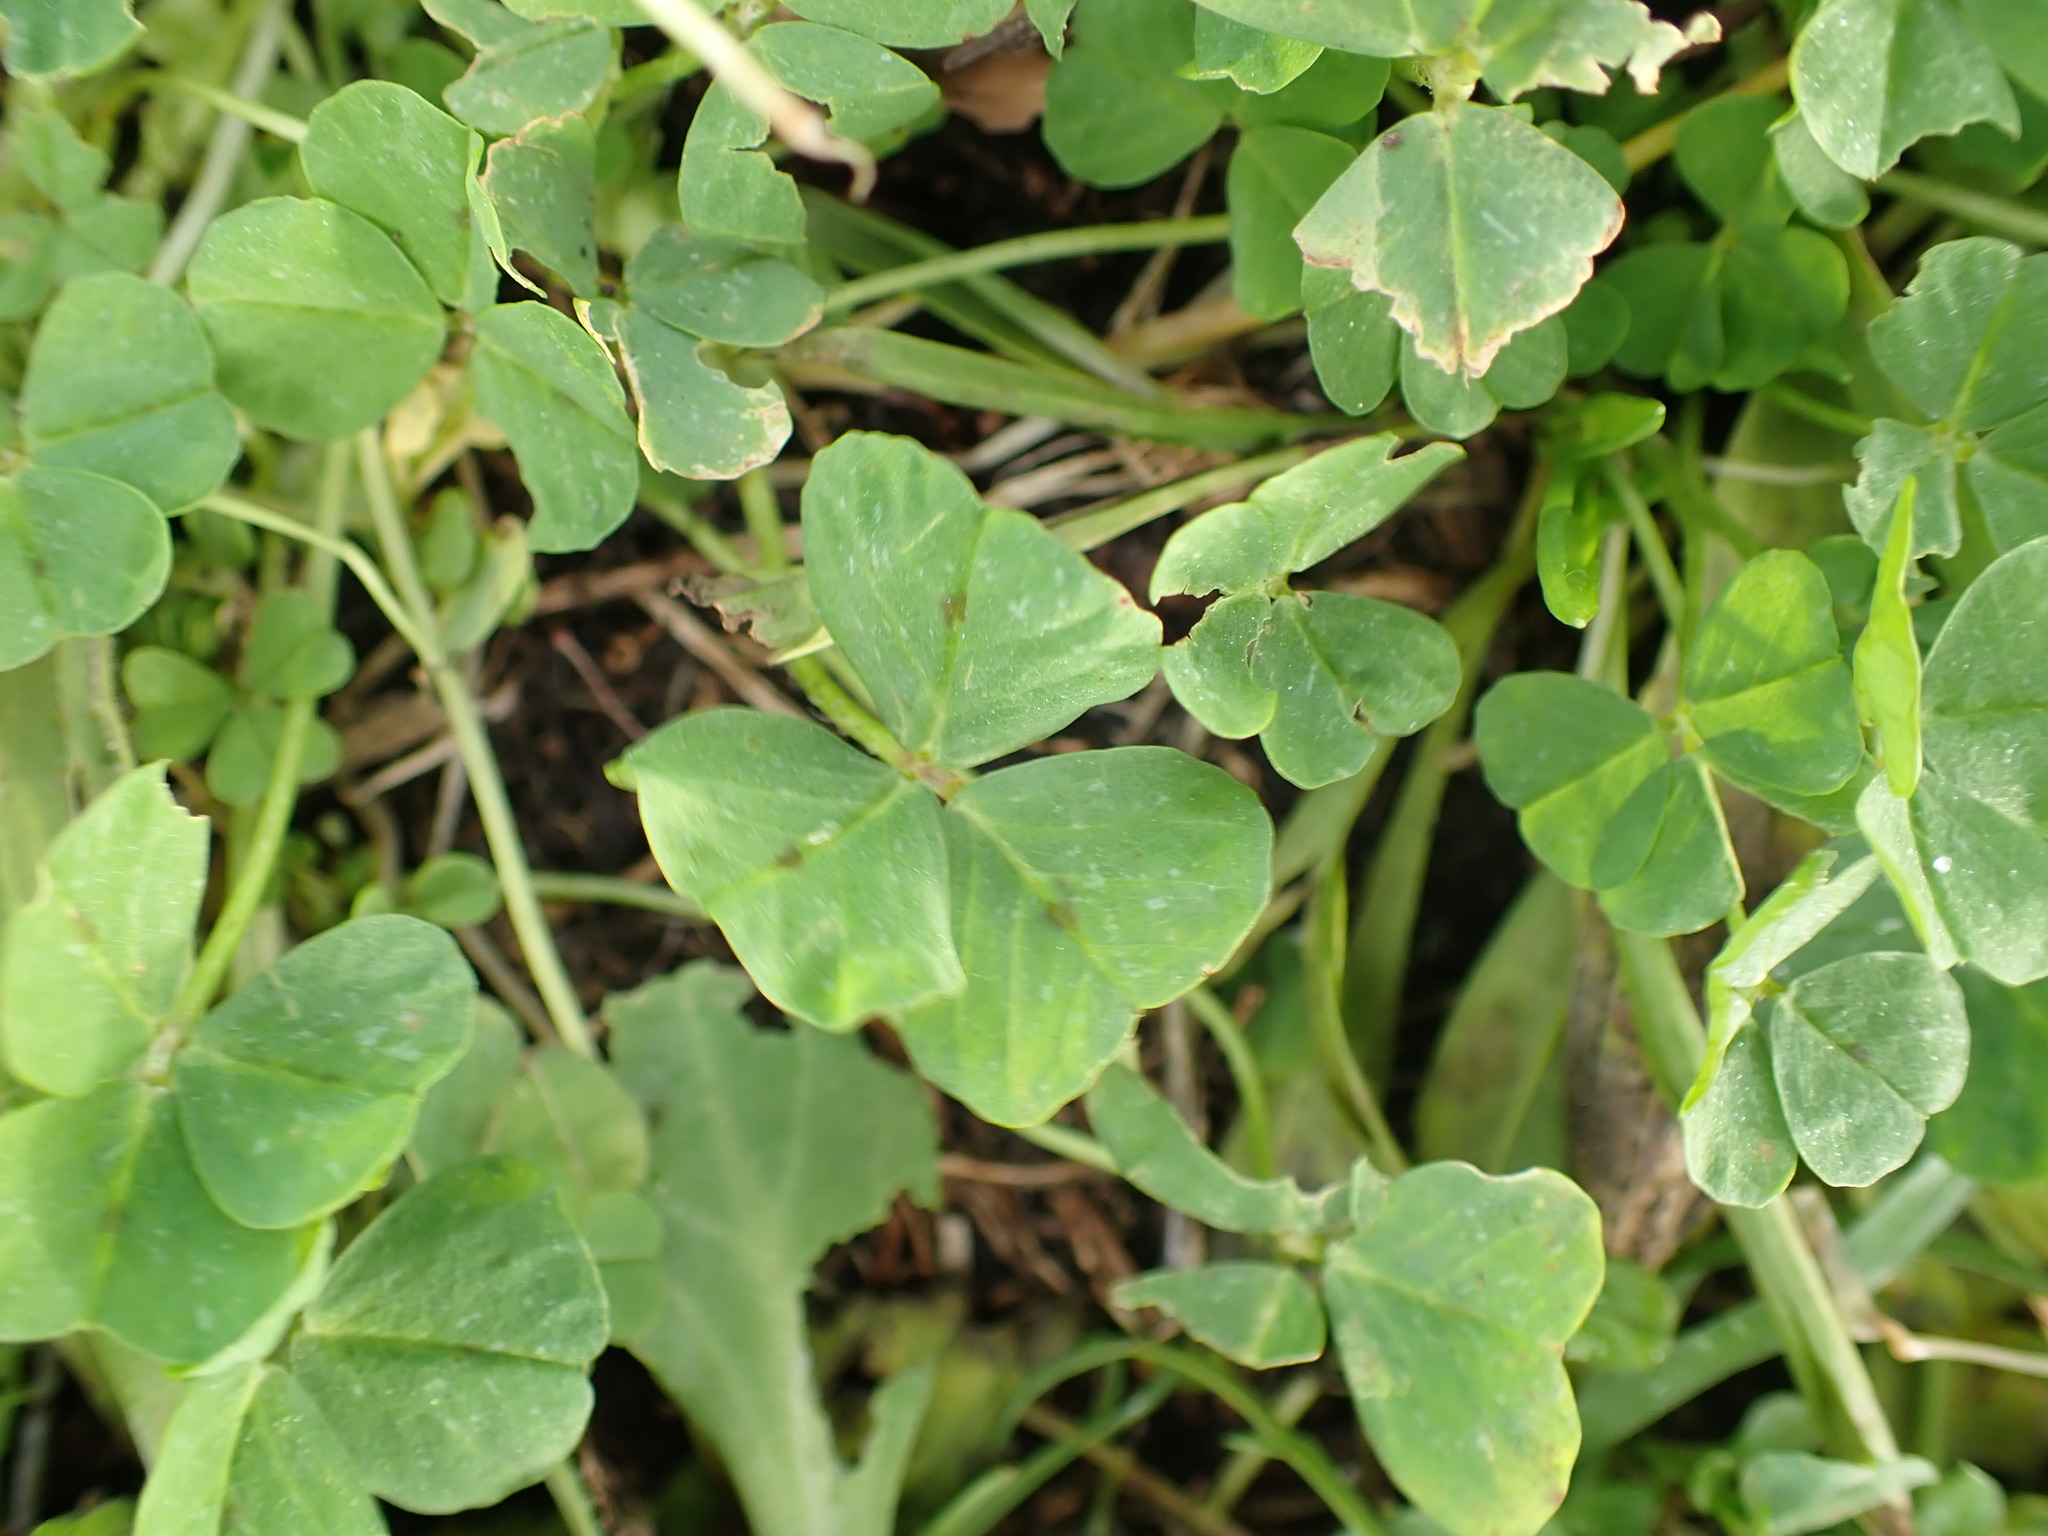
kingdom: Plantae
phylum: Tracheophyta
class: Magnoliopsida
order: Fabales
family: Fabaceae
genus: Medicago
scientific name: Medicago arabica
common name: Spotted medick
